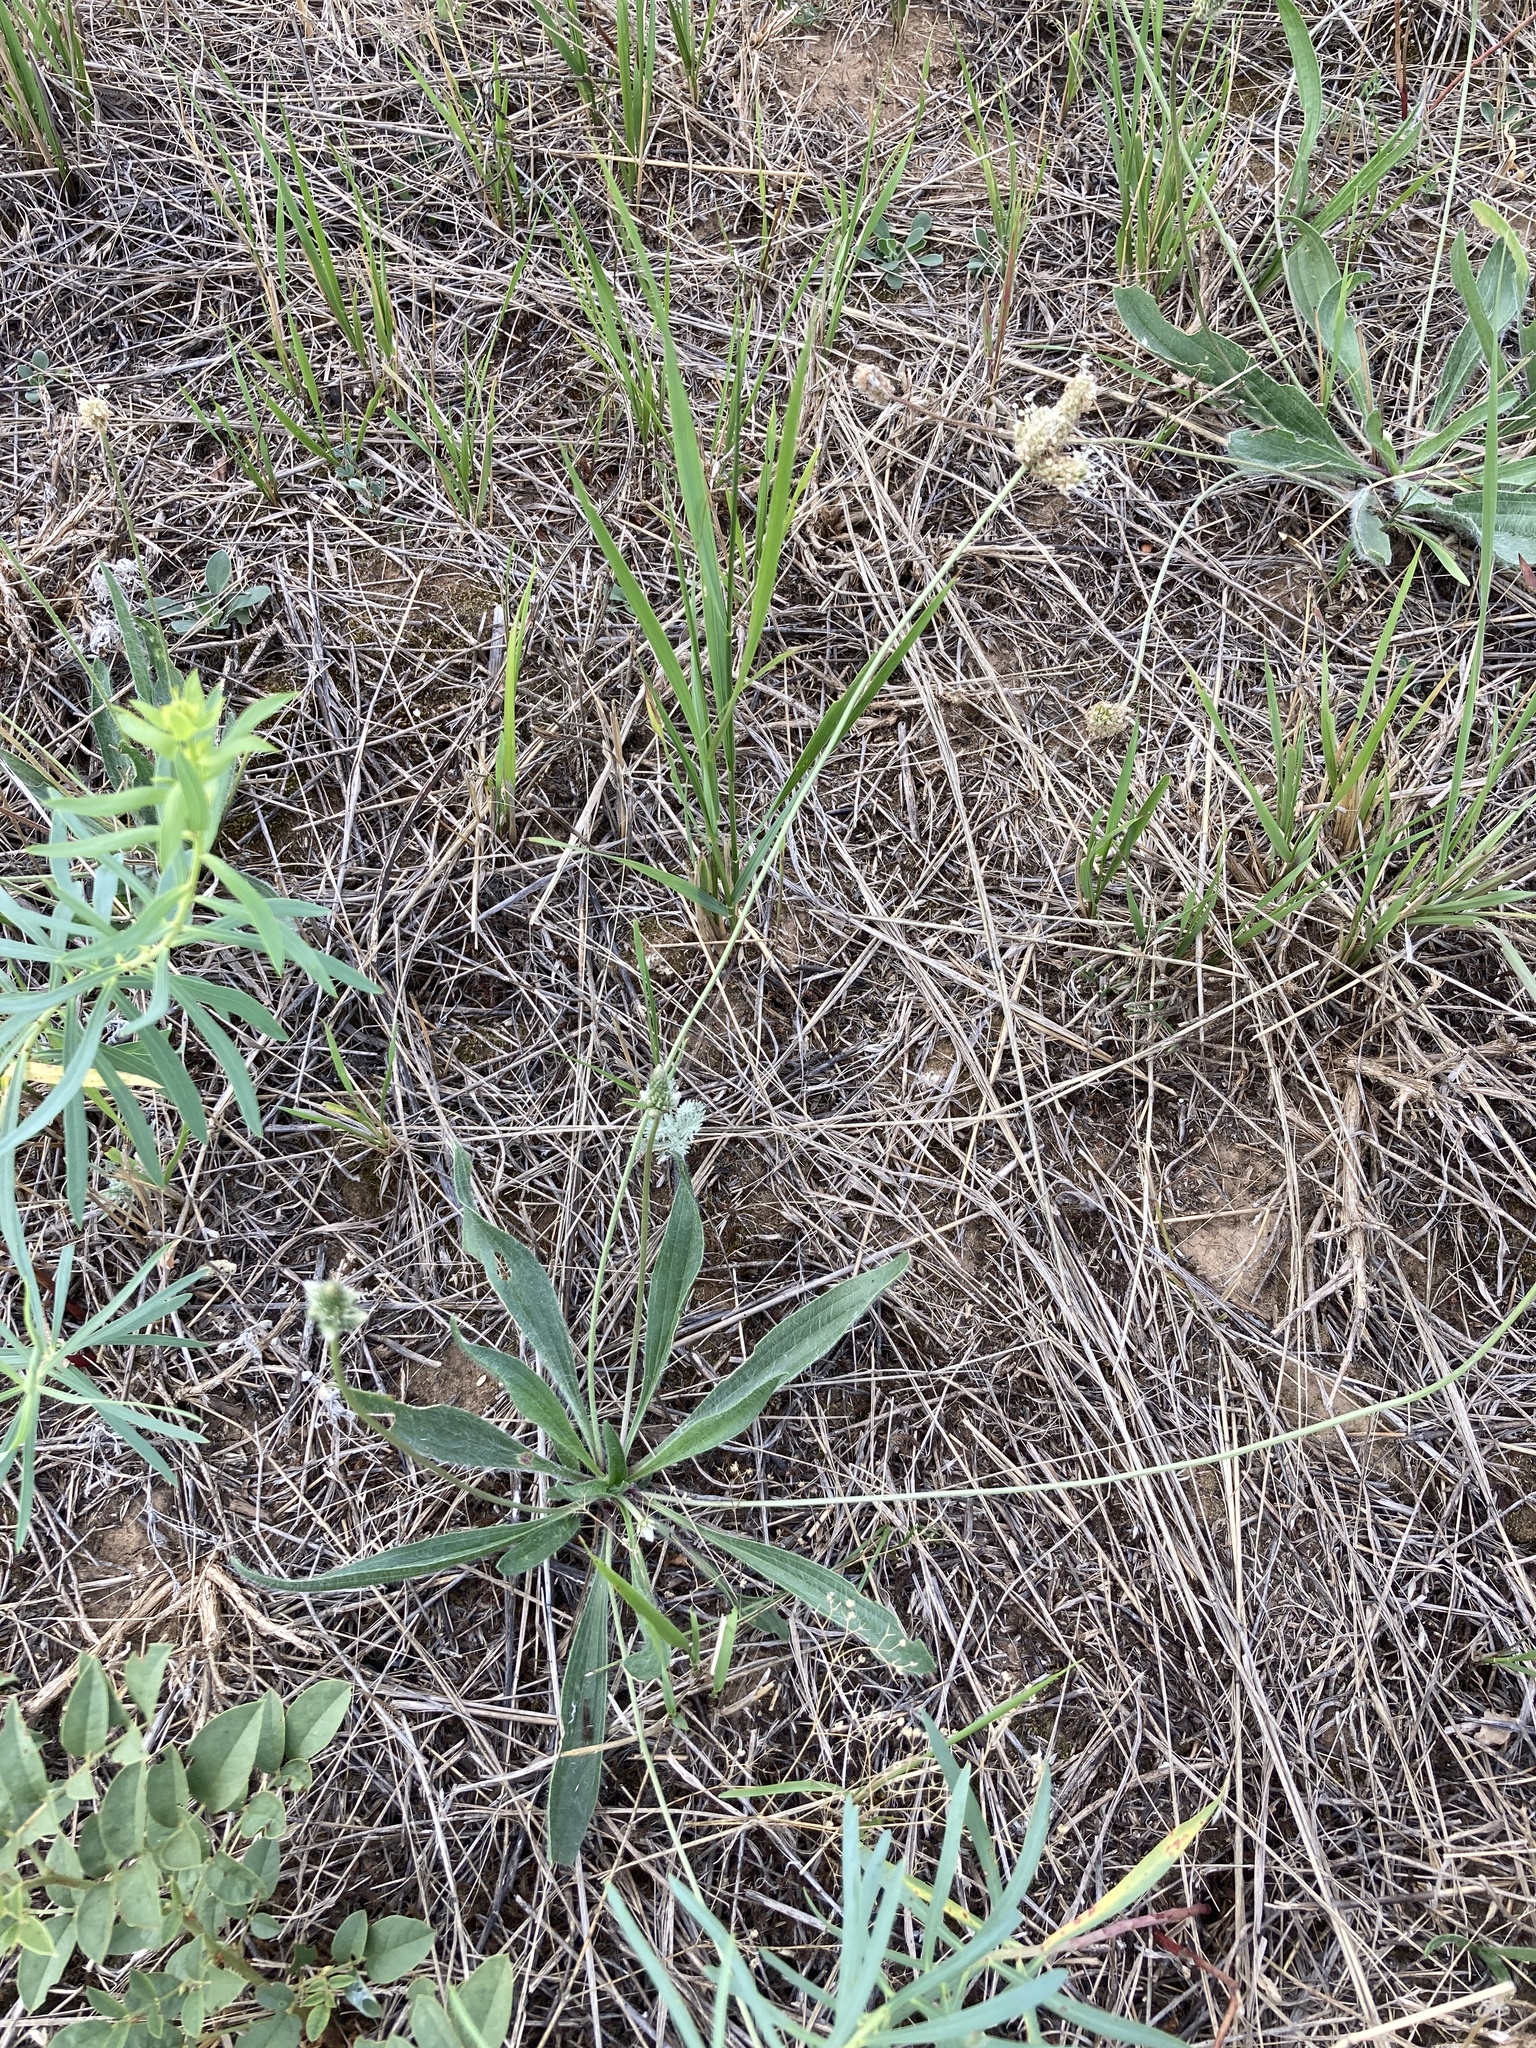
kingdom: Plantae
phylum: Tracheophyta
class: Magnoliopsida
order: Lamiales
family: Plantaginaceae
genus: Plantago
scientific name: Plantago lanceolata
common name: Ribwort plantain
